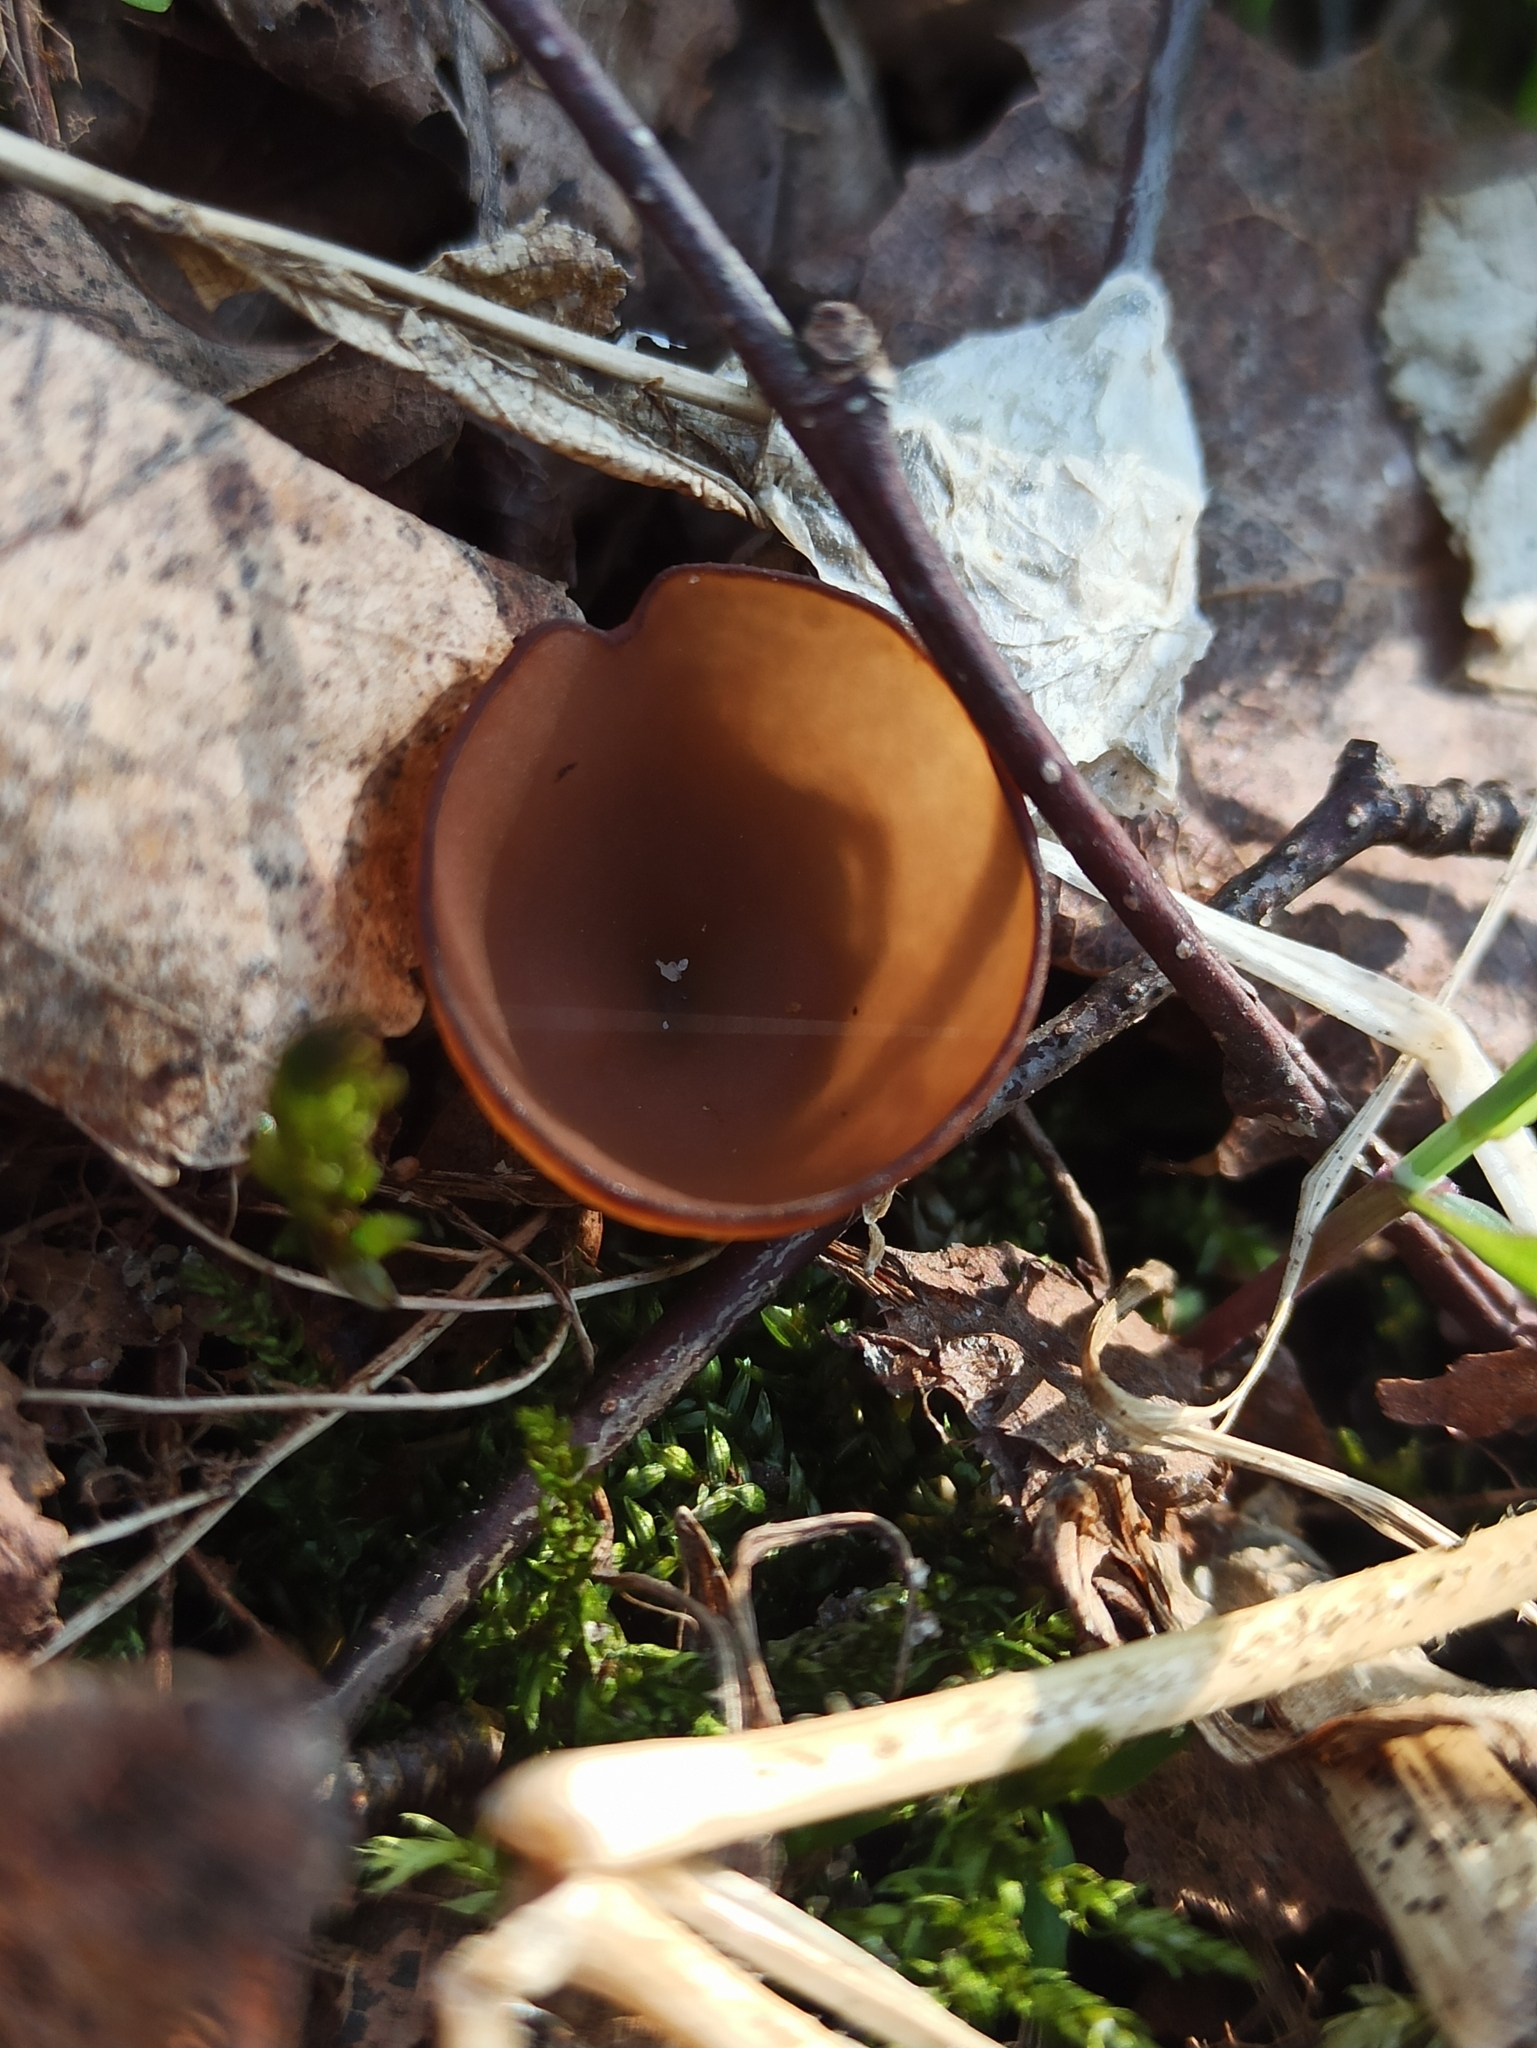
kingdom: Fungi
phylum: Ascomycota
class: Leotiomycetes
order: Helotiales
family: Sclerotiniaceae
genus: Dumontinia
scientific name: Dumontinia tuberosa
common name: Anemone cup
